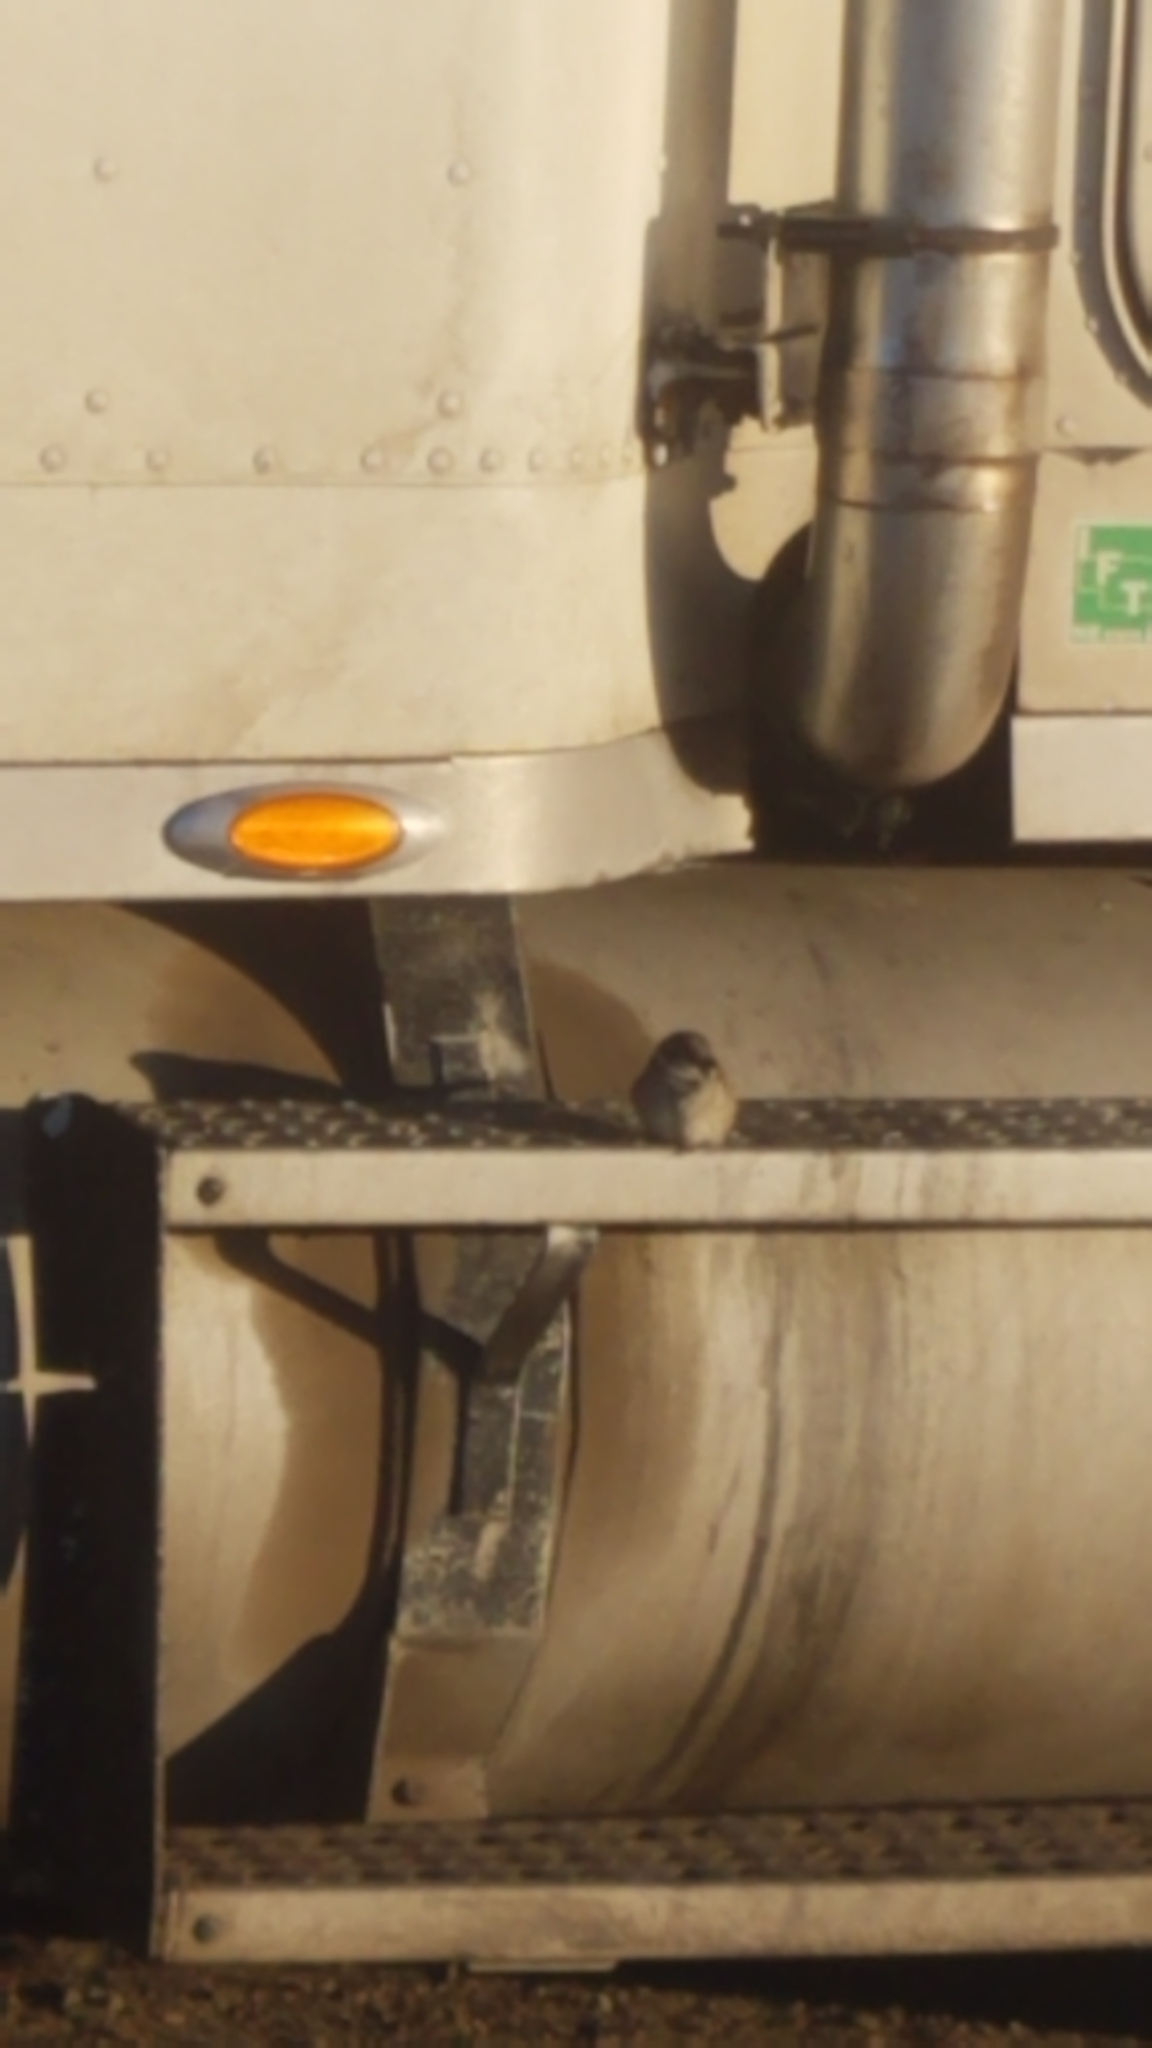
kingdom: Animalia
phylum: Chordata
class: Aves
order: Passeriformes
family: Passeridae
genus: Passer
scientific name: Passer domesticus
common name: House sparrow
